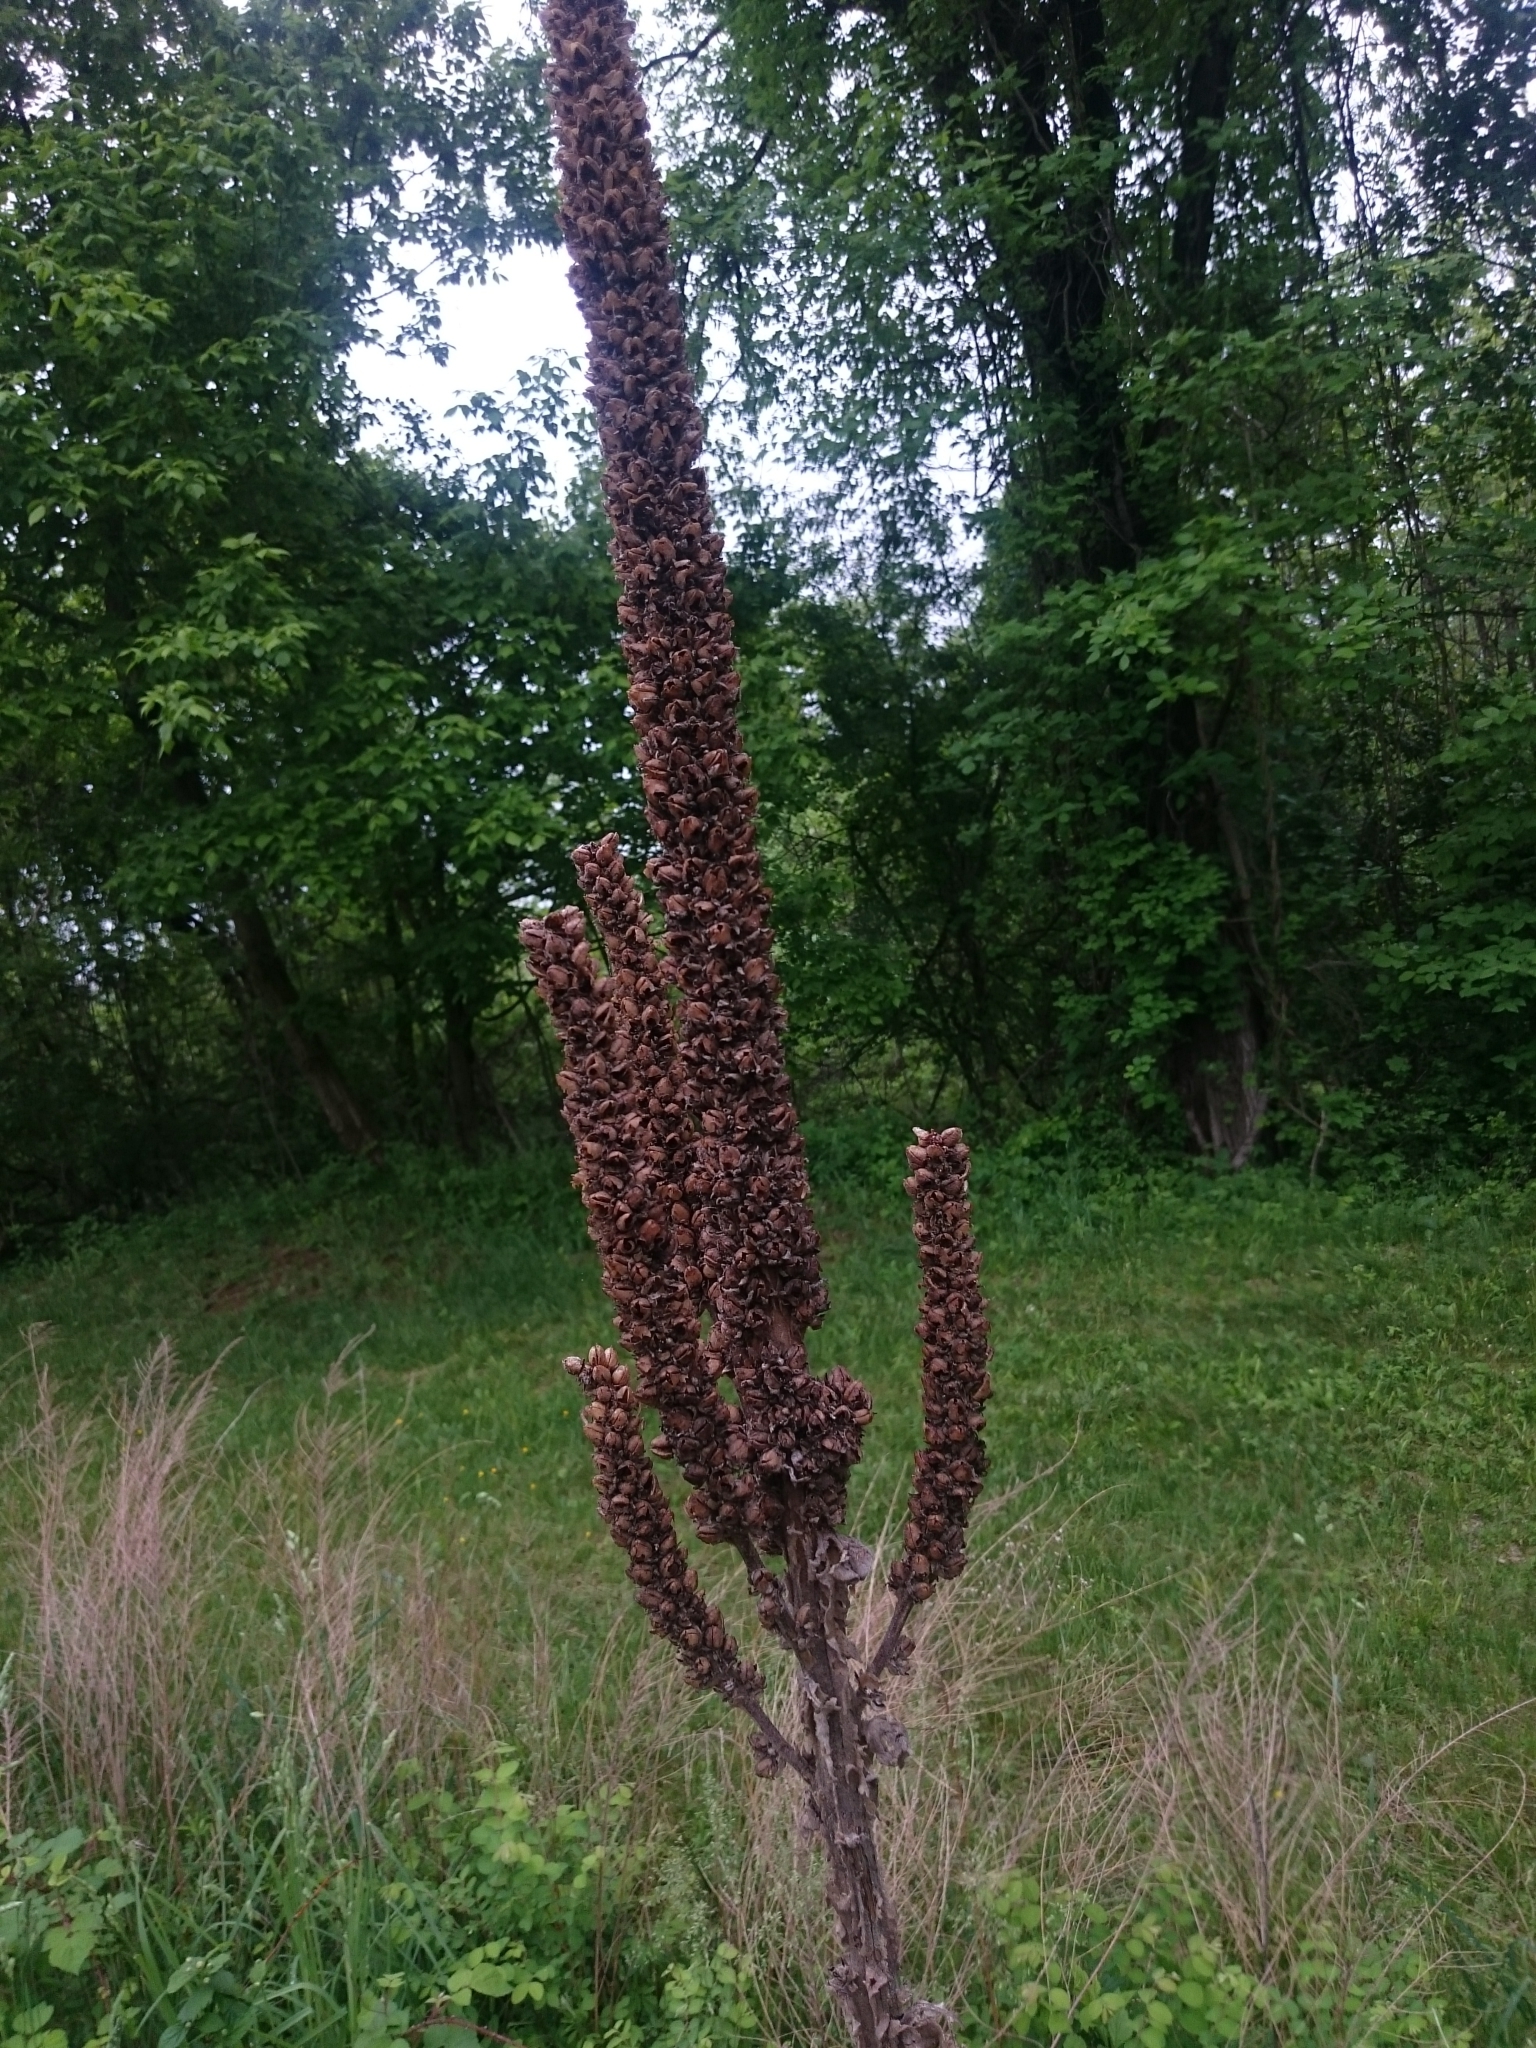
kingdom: Plantae
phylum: Tracheophyta
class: Magnoliopsida
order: Lamiales
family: Scrophulariaceae
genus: Verbascum
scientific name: Verbascum thapsus
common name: Common mullein
